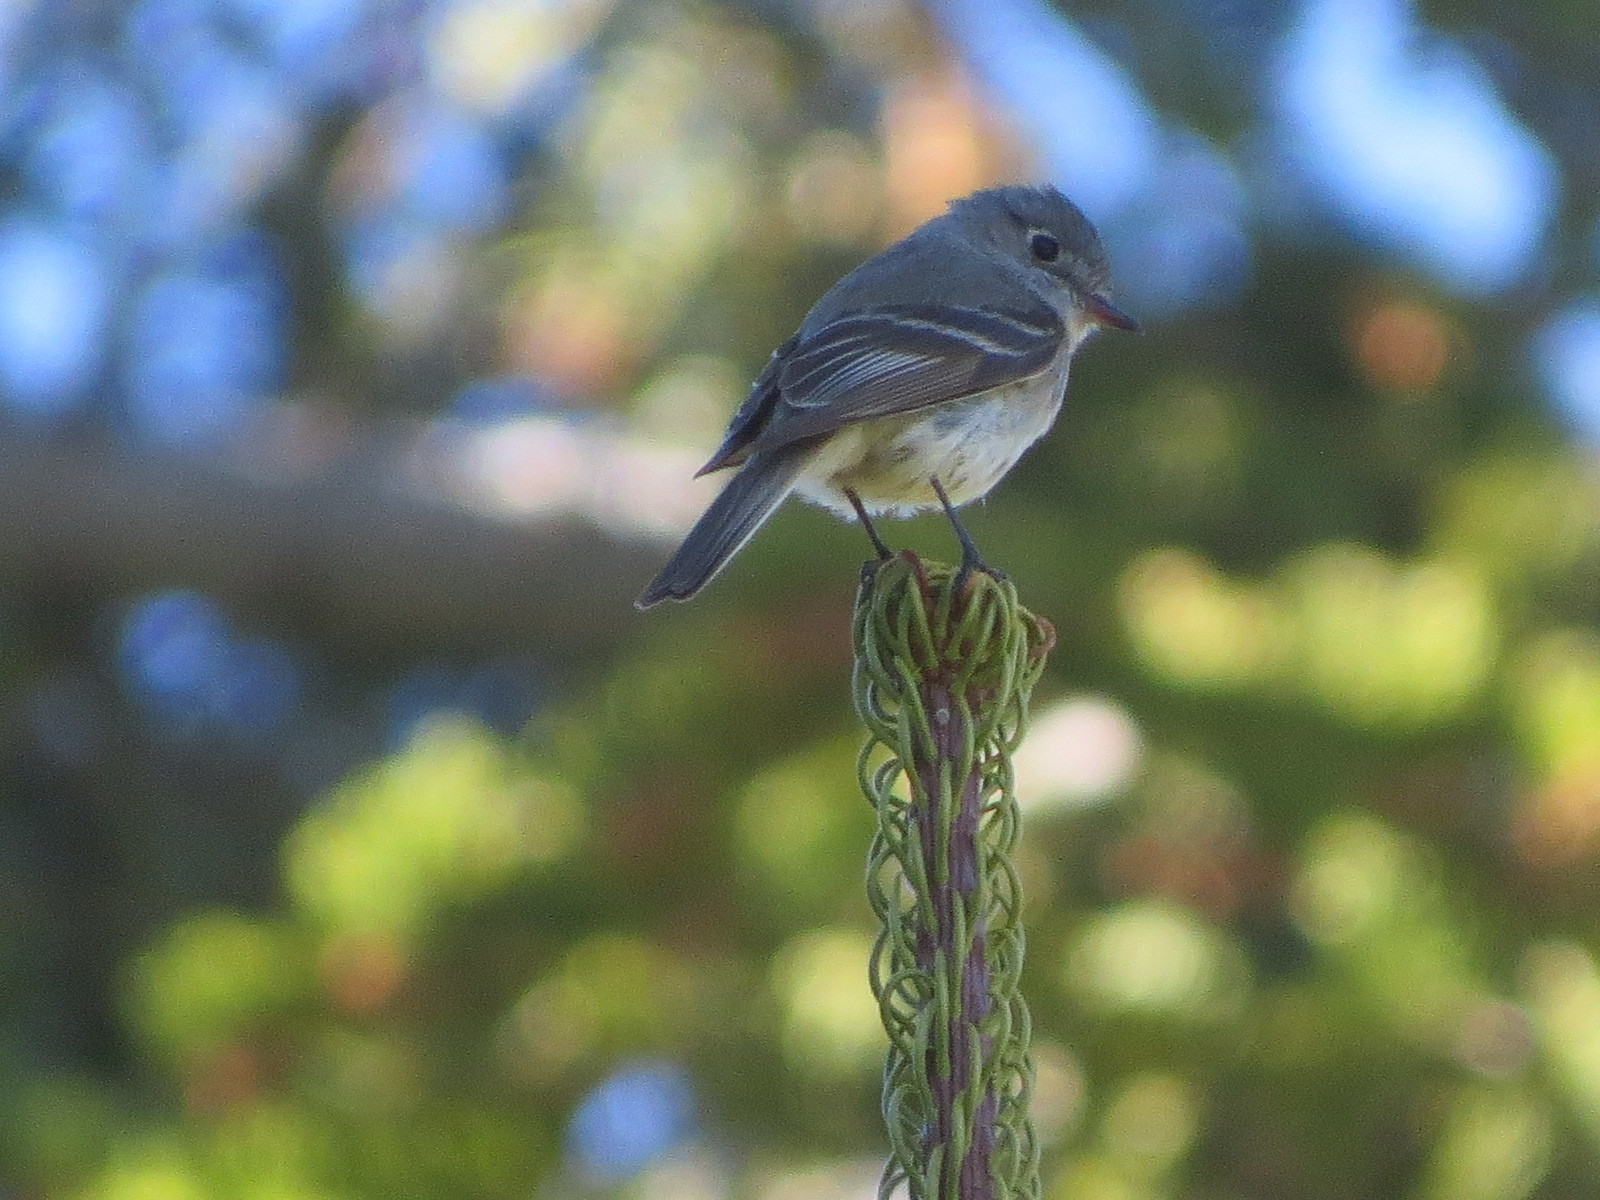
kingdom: Animalia
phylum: Chordata
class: Aves
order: Passeriformes
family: Tyrannidae
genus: Empidonax
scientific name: Empidonax oberholseri
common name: Dusky flycatcher
